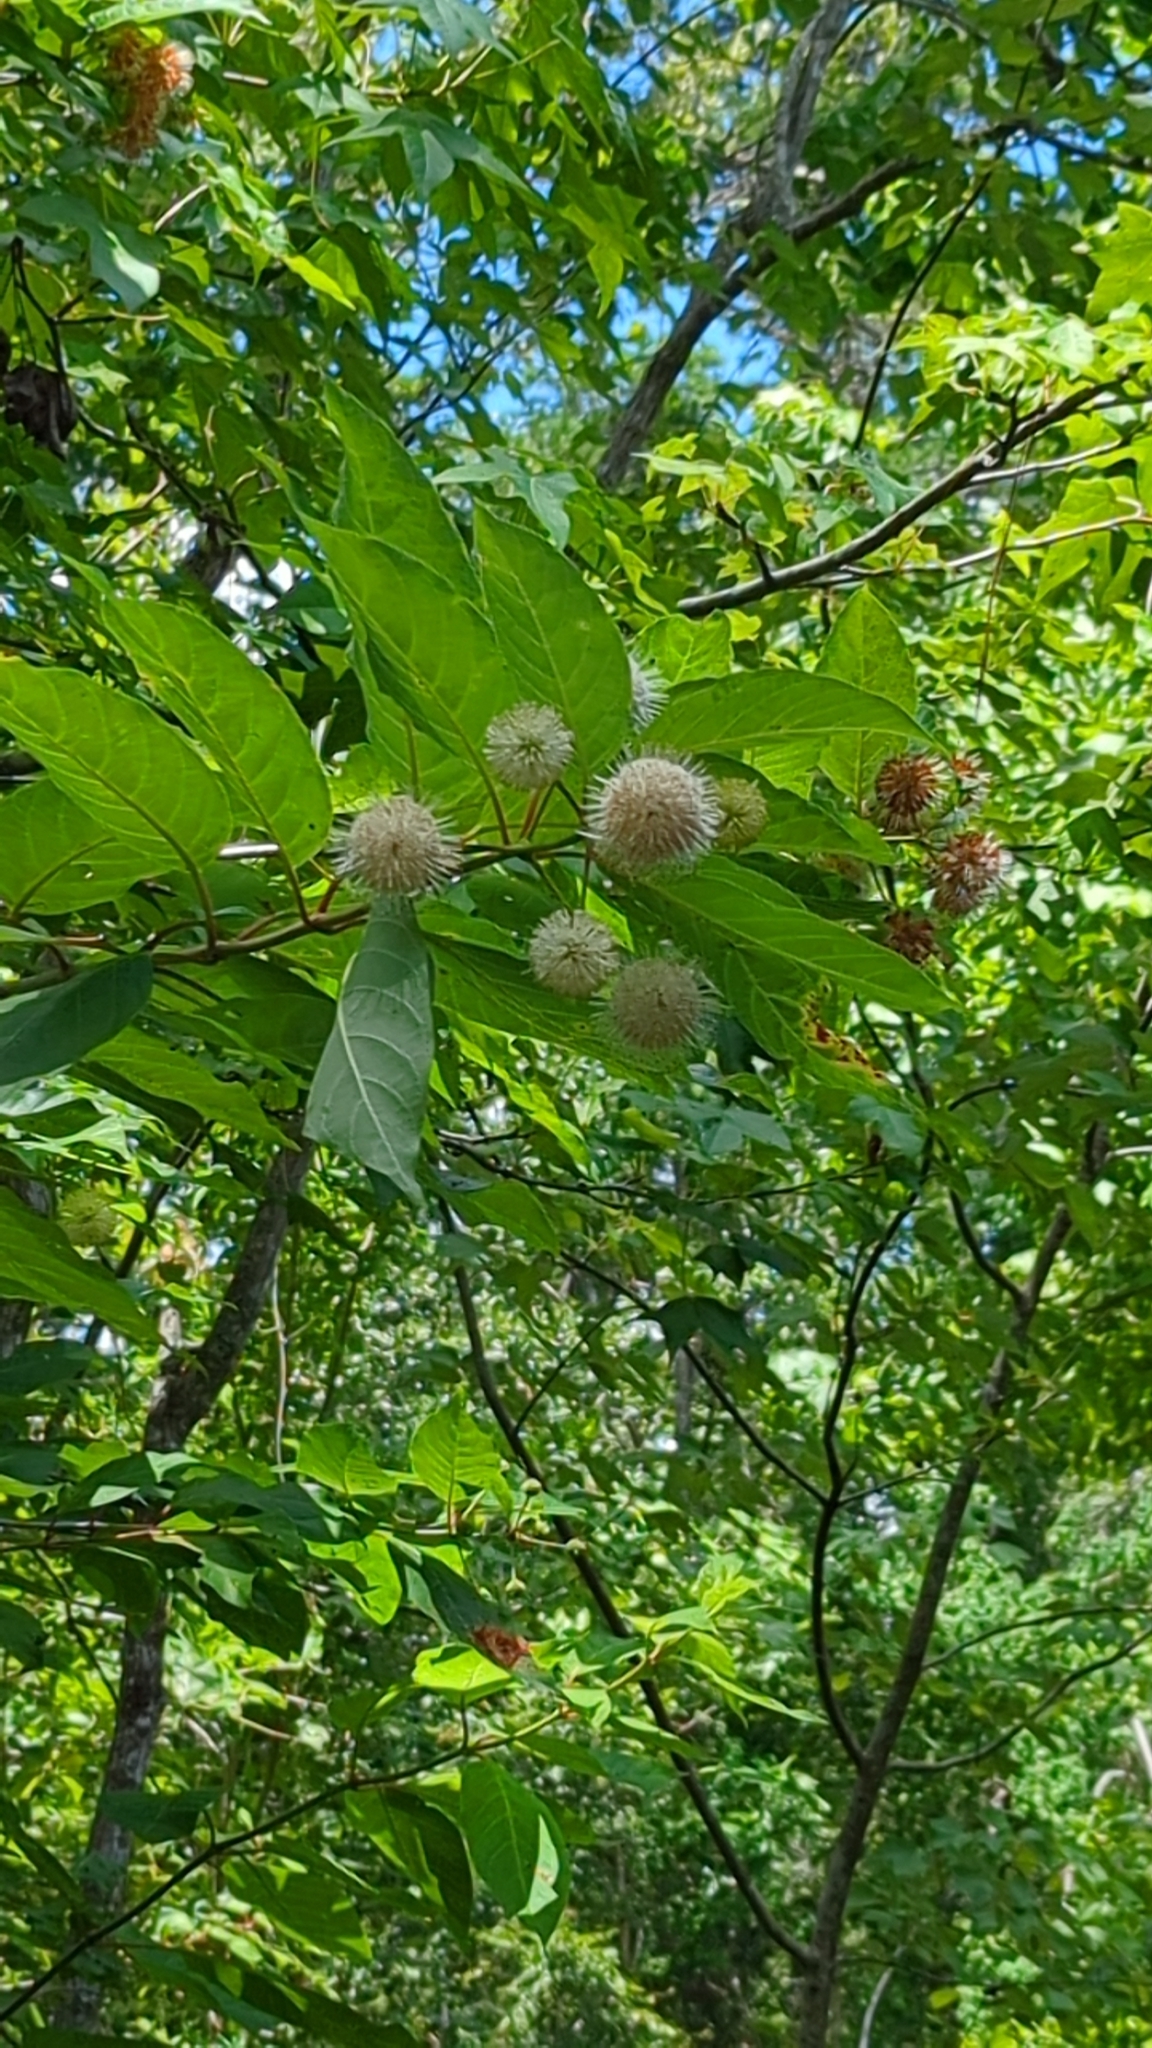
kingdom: Plantae
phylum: Tracheophyta
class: Magnoliopsida
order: Gentianales
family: Rubiaceae
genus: Cephalanthus
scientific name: Cephalanthus occidentalis
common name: Button-willow
